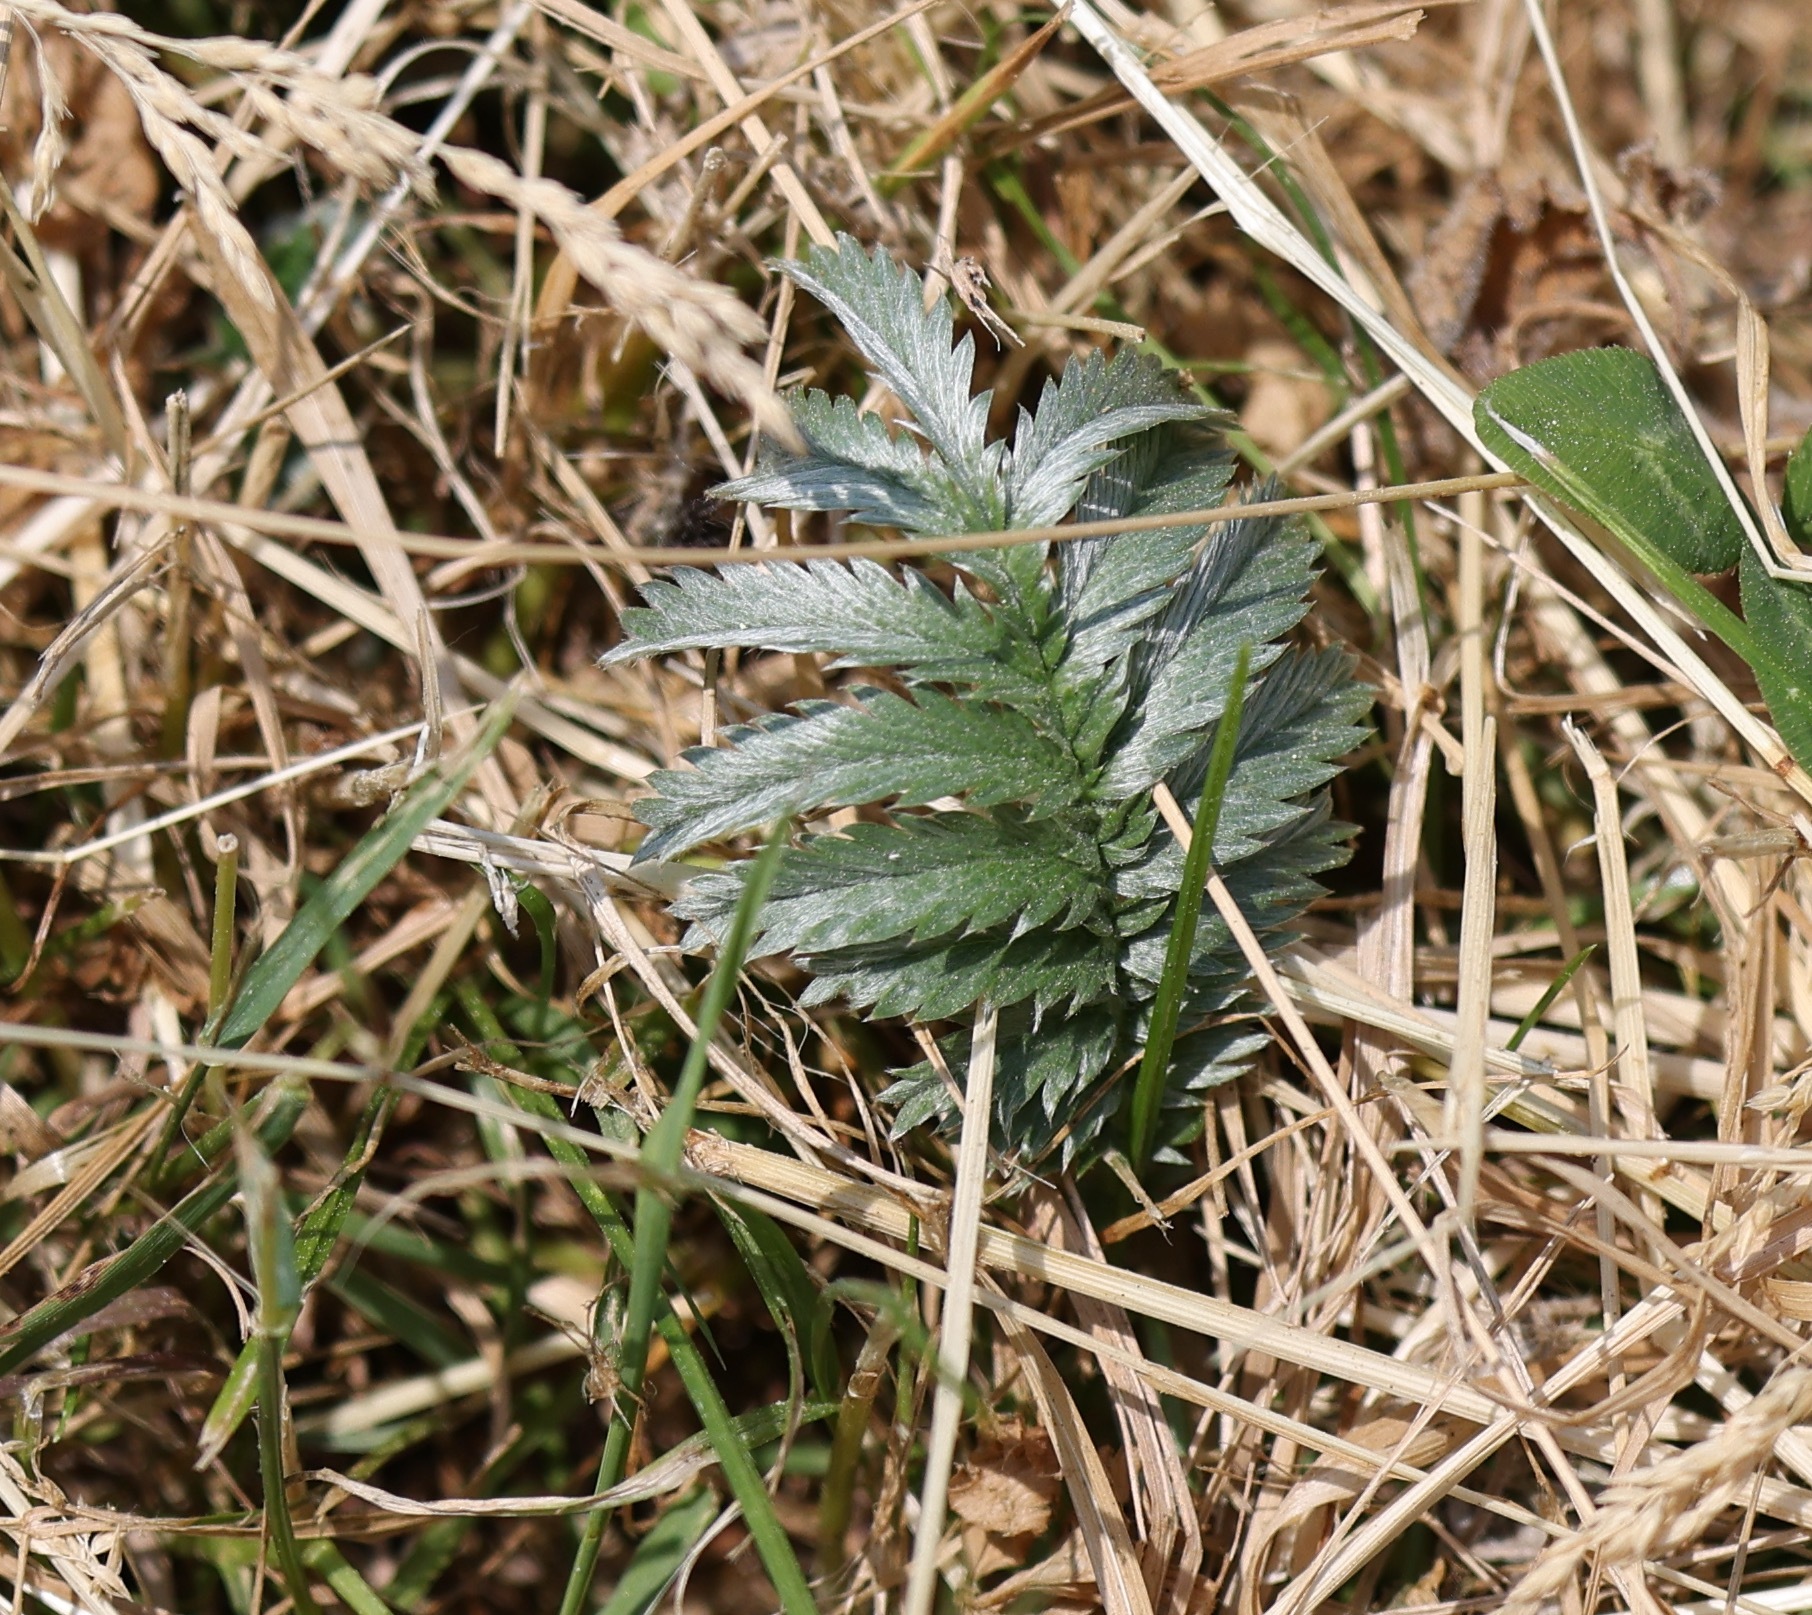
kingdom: Plantae
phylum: Tracheophyta
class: Magnoliopsida
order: Rosales
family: Rosaceae
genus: Argentina
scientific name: Argentina anserina
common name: Common silverweed
